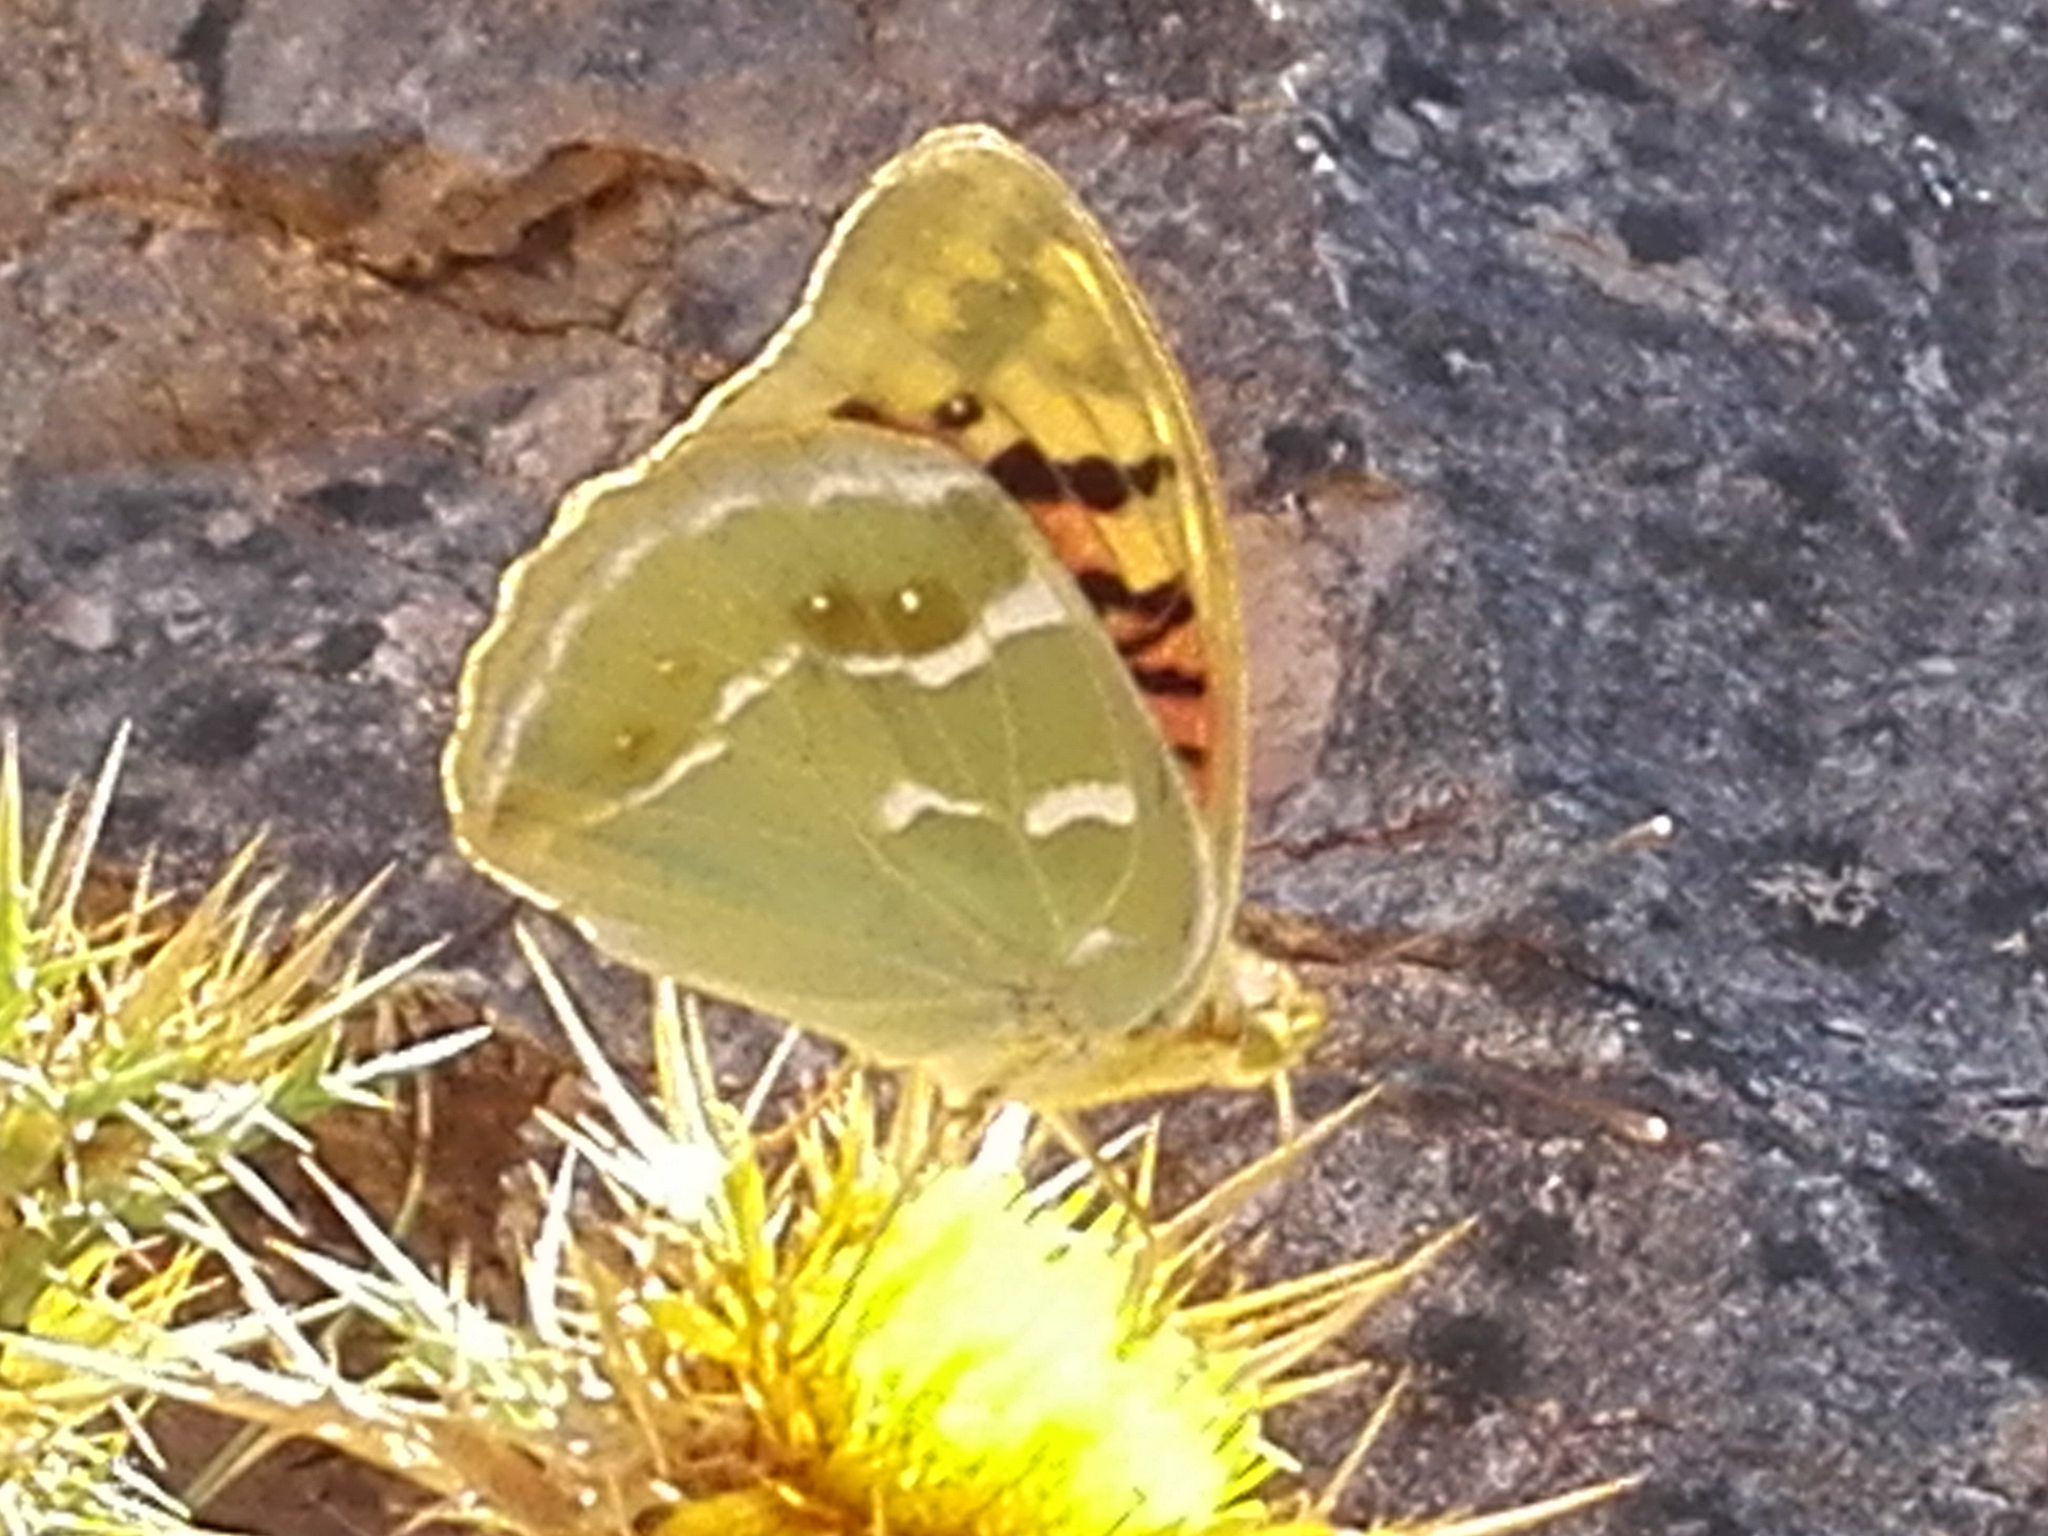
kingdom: Animalia
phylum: Arthropoda
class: Insecta
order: Lepidoptera
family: Nymphalidae
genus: Damora
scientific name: Damora pandora
